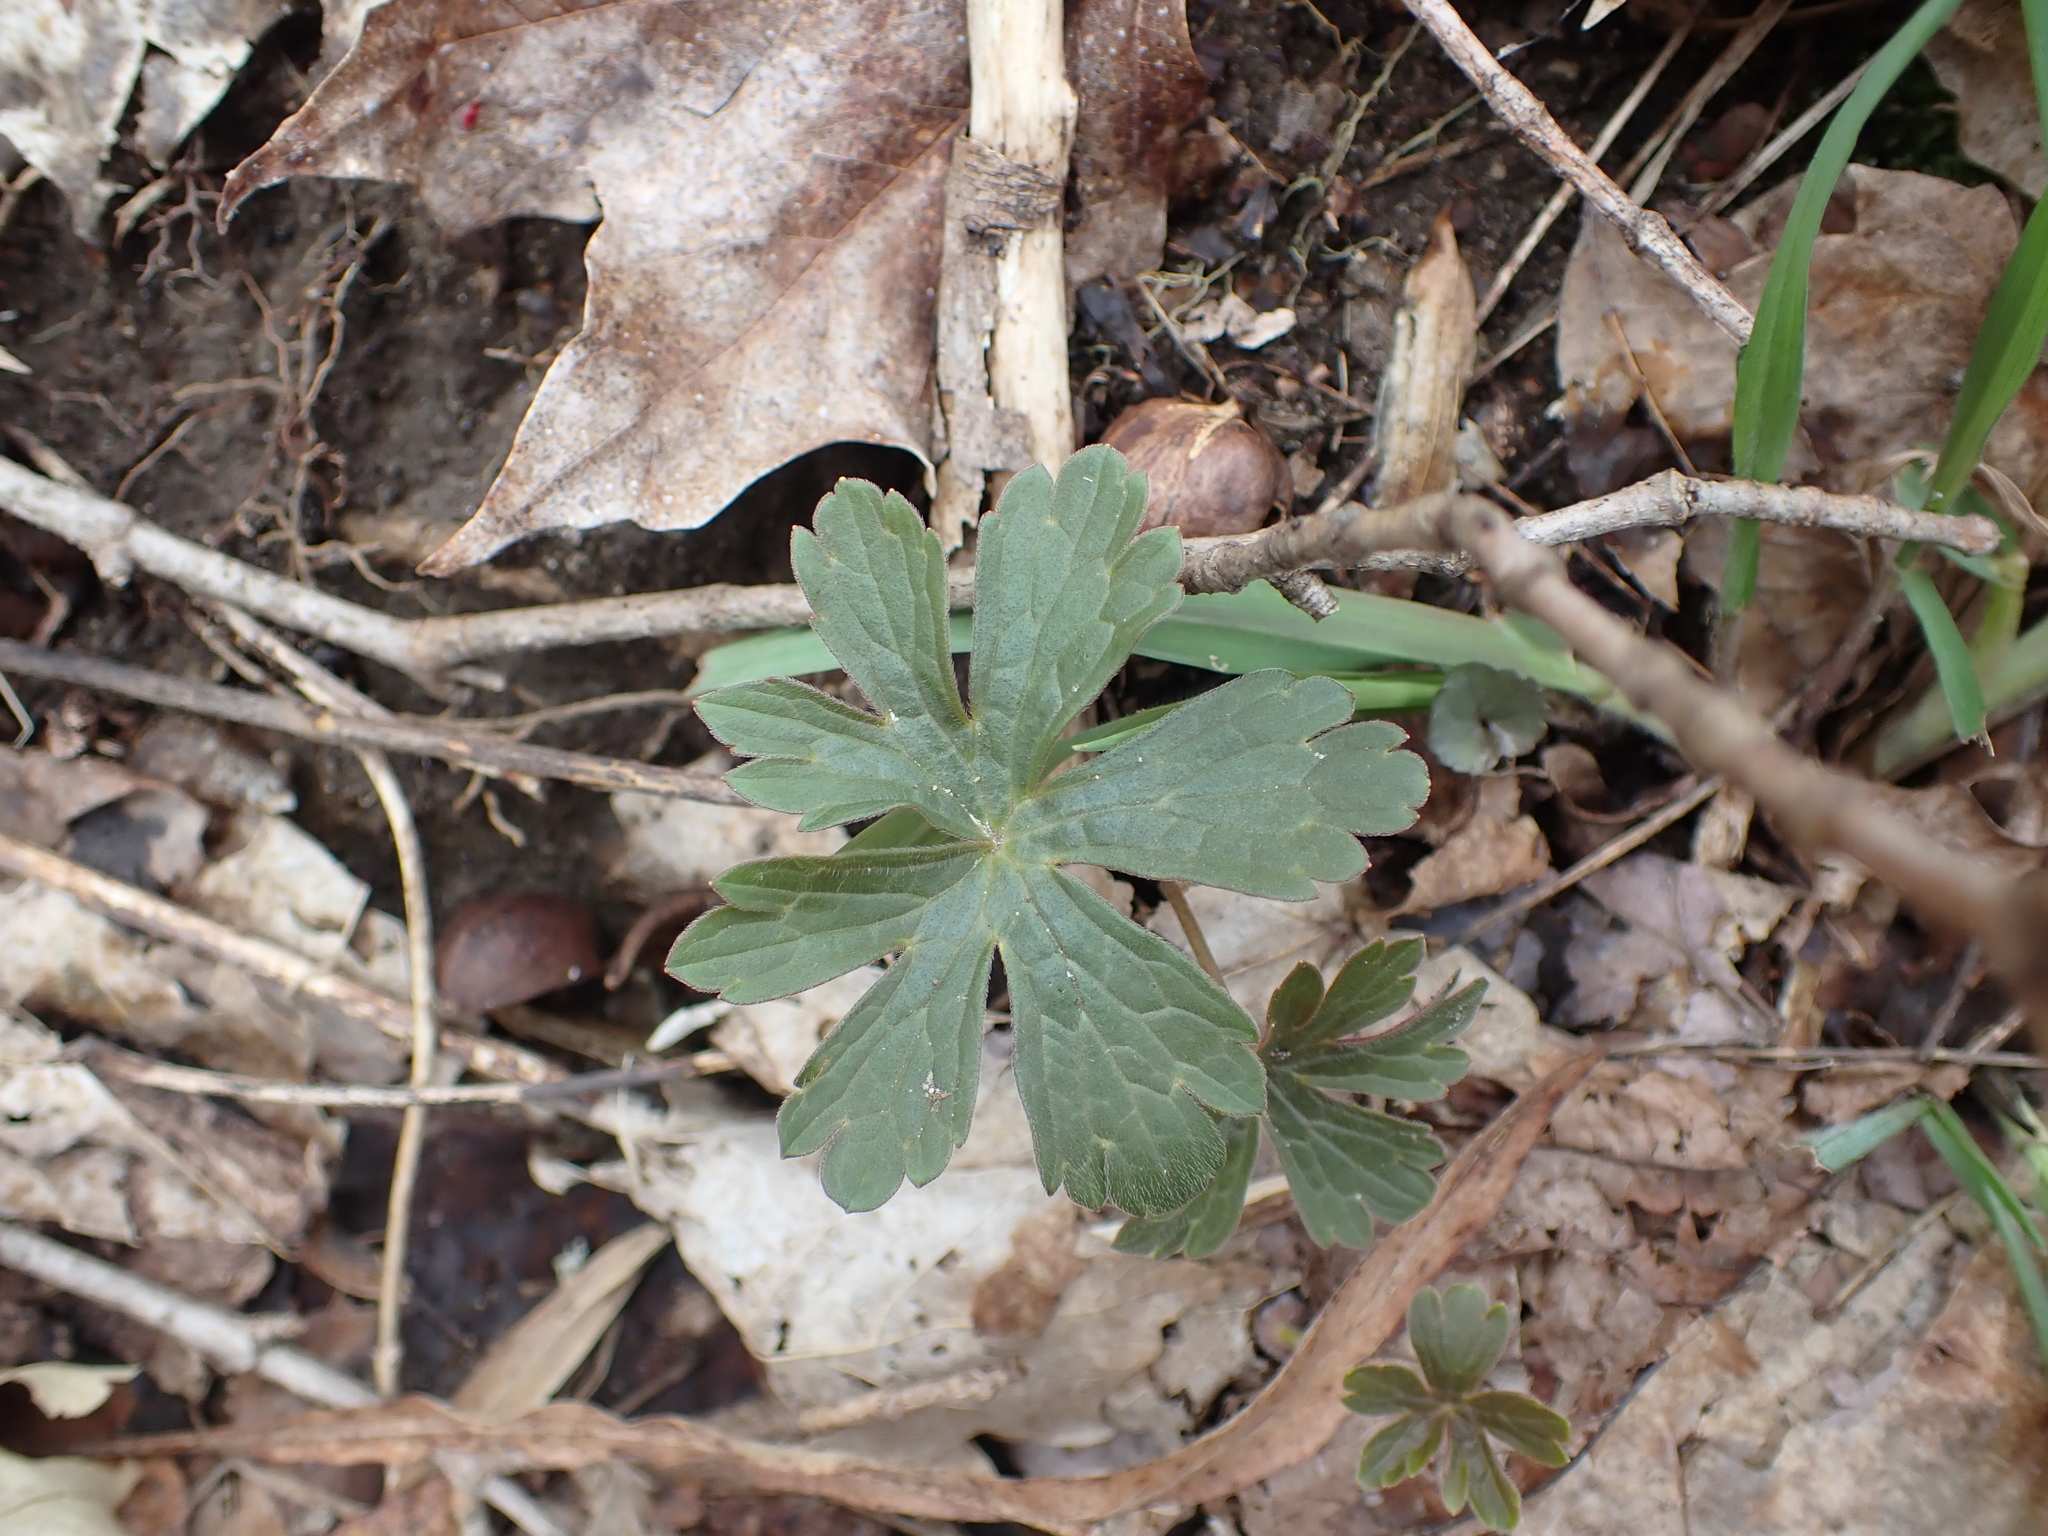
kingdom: Plantae
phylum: Tracheophyta
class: Magnoliopsida
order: Geraniales
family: Geraniaceae
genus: Geranium
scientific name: Geranium maculatum
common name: Spotted geranium
